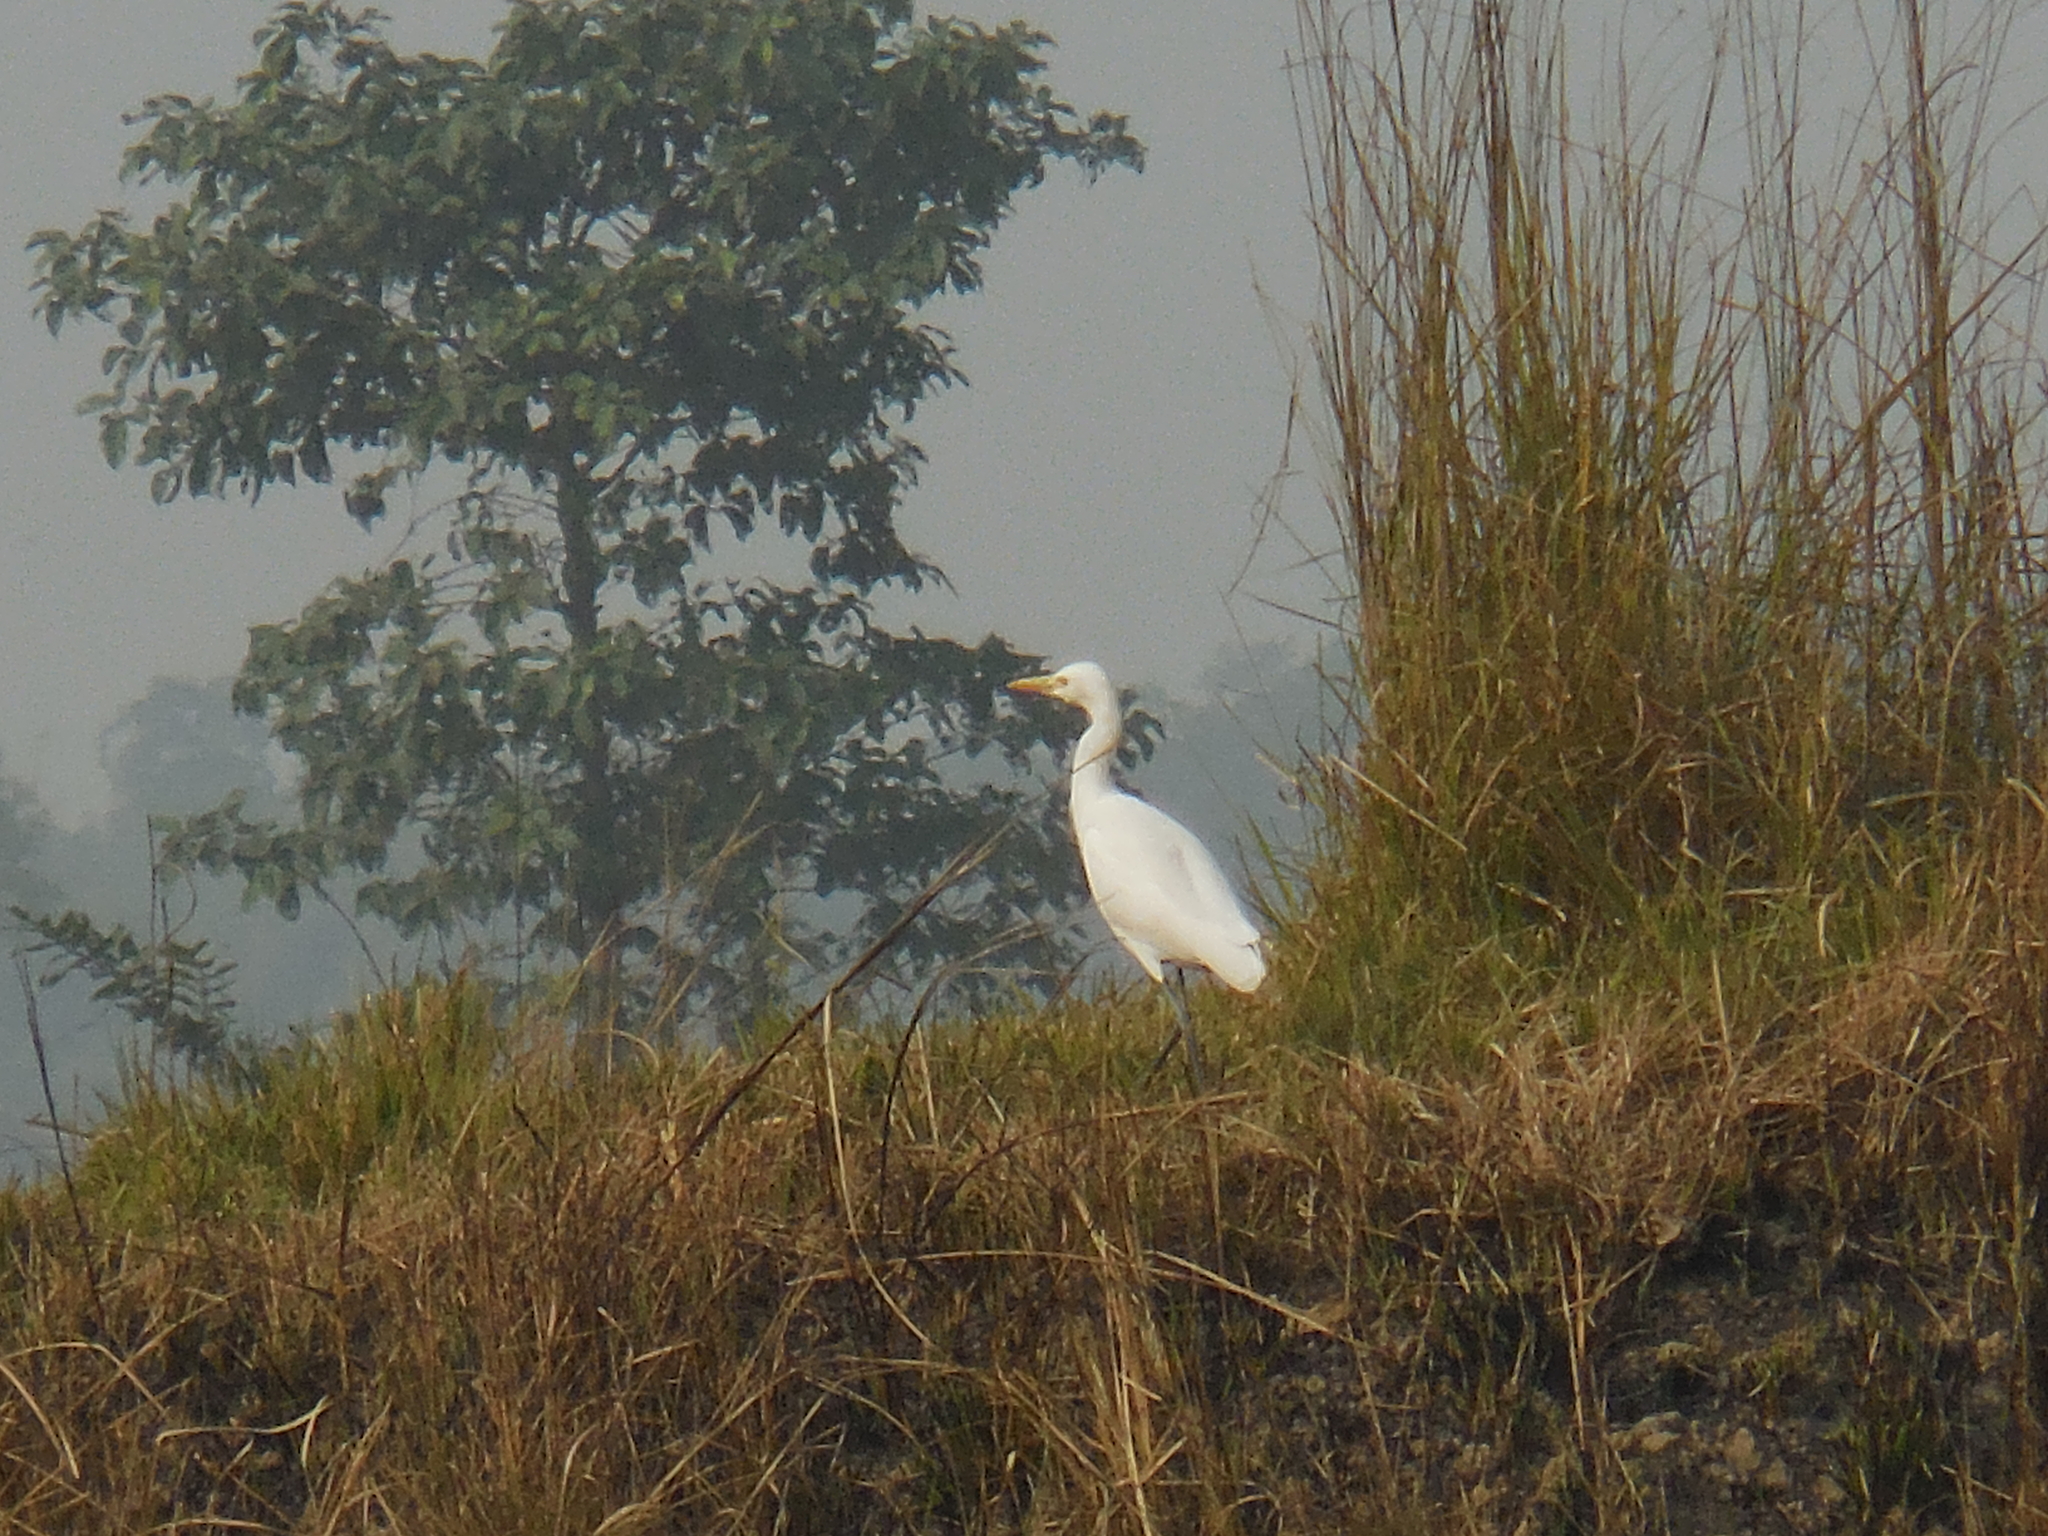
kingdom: Animalia
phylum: Chordata
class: Aves
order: Pelecaniformes
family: Ardeidae
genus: Bubulcus
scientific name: Bubulcus coromandus
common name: Eastern cattle egret
